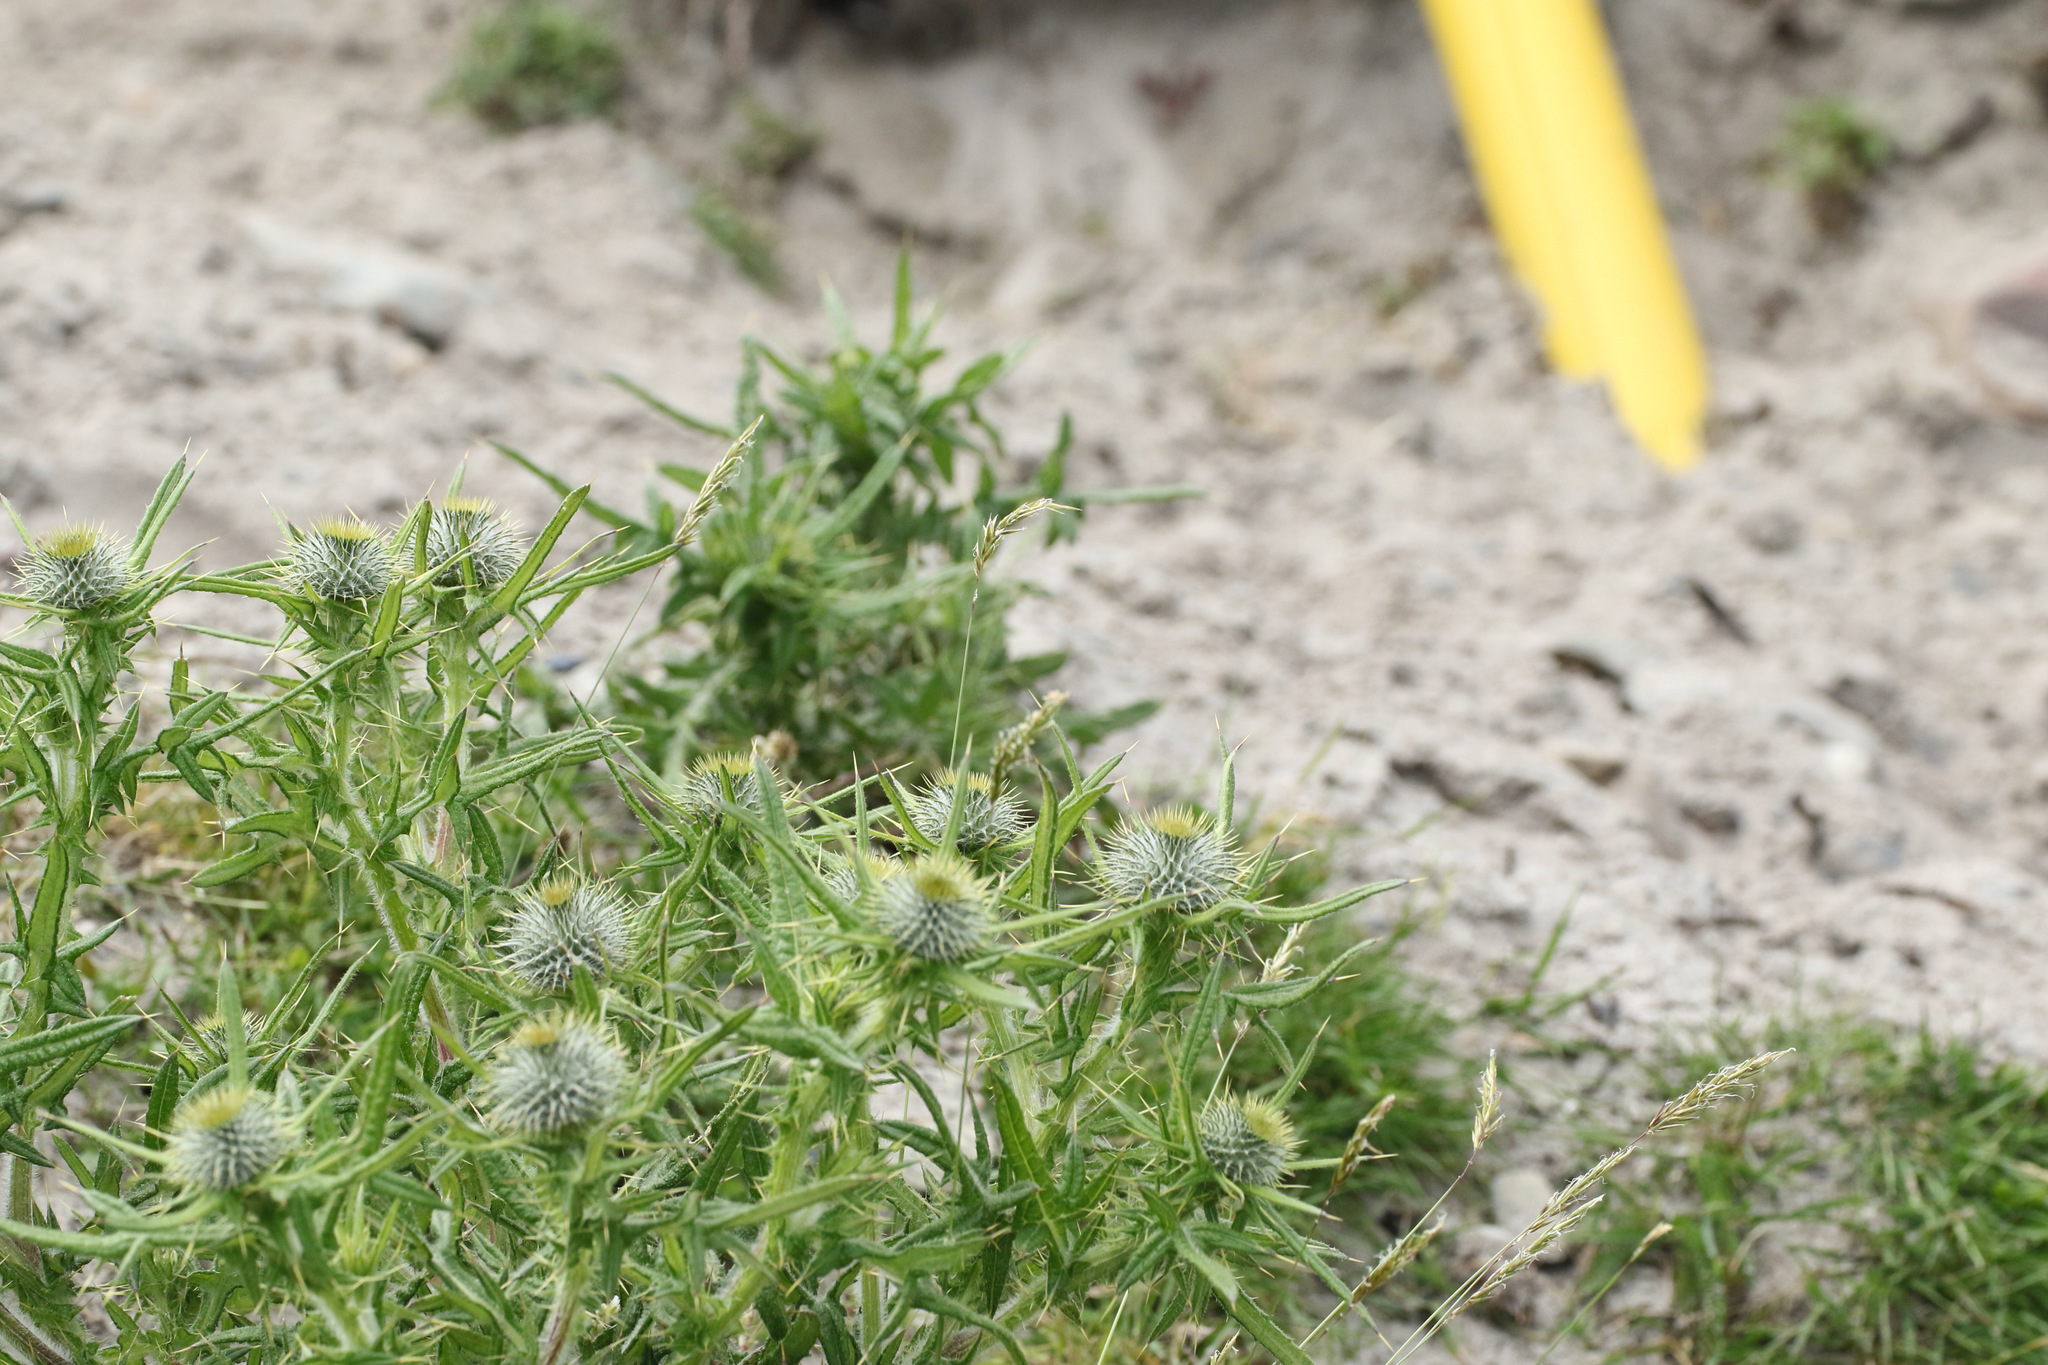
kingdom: Plantae
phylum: Tracheophyta
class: Magnoliopsida
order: Asterales
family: Asteraceae
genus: Cirsium
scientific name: Cirsium vulgare
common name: Bull thistle
